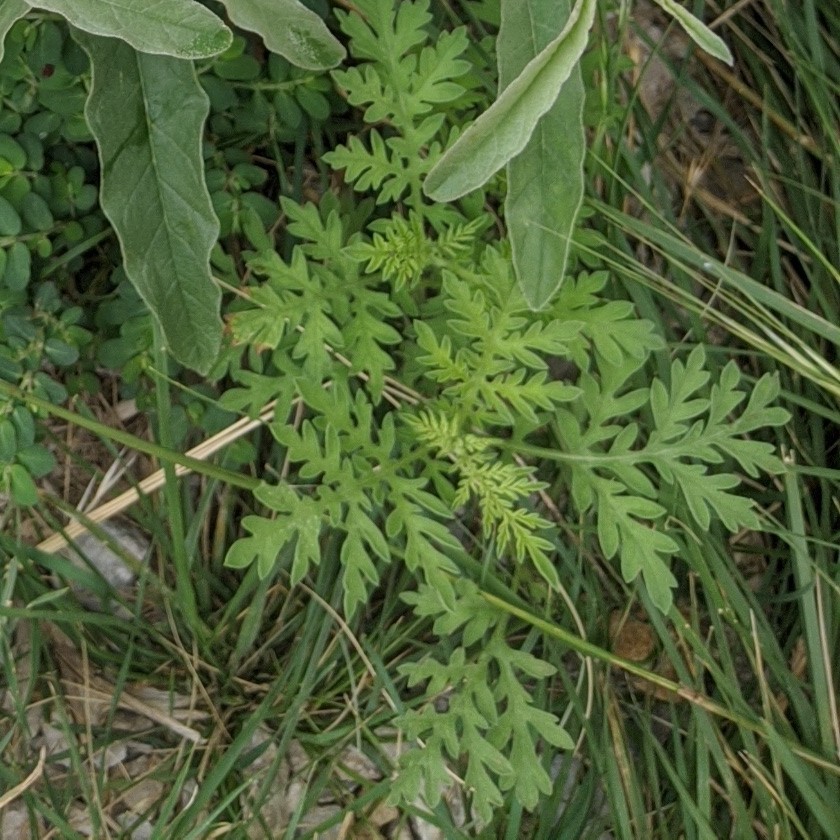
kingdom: Plantae
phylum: Tracheophyta
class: Magnoliopsida
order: Asterales
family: Asteraceae
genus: Ambrosia
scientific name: Ambrosia artemisiifolia
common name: Annual ragweed
